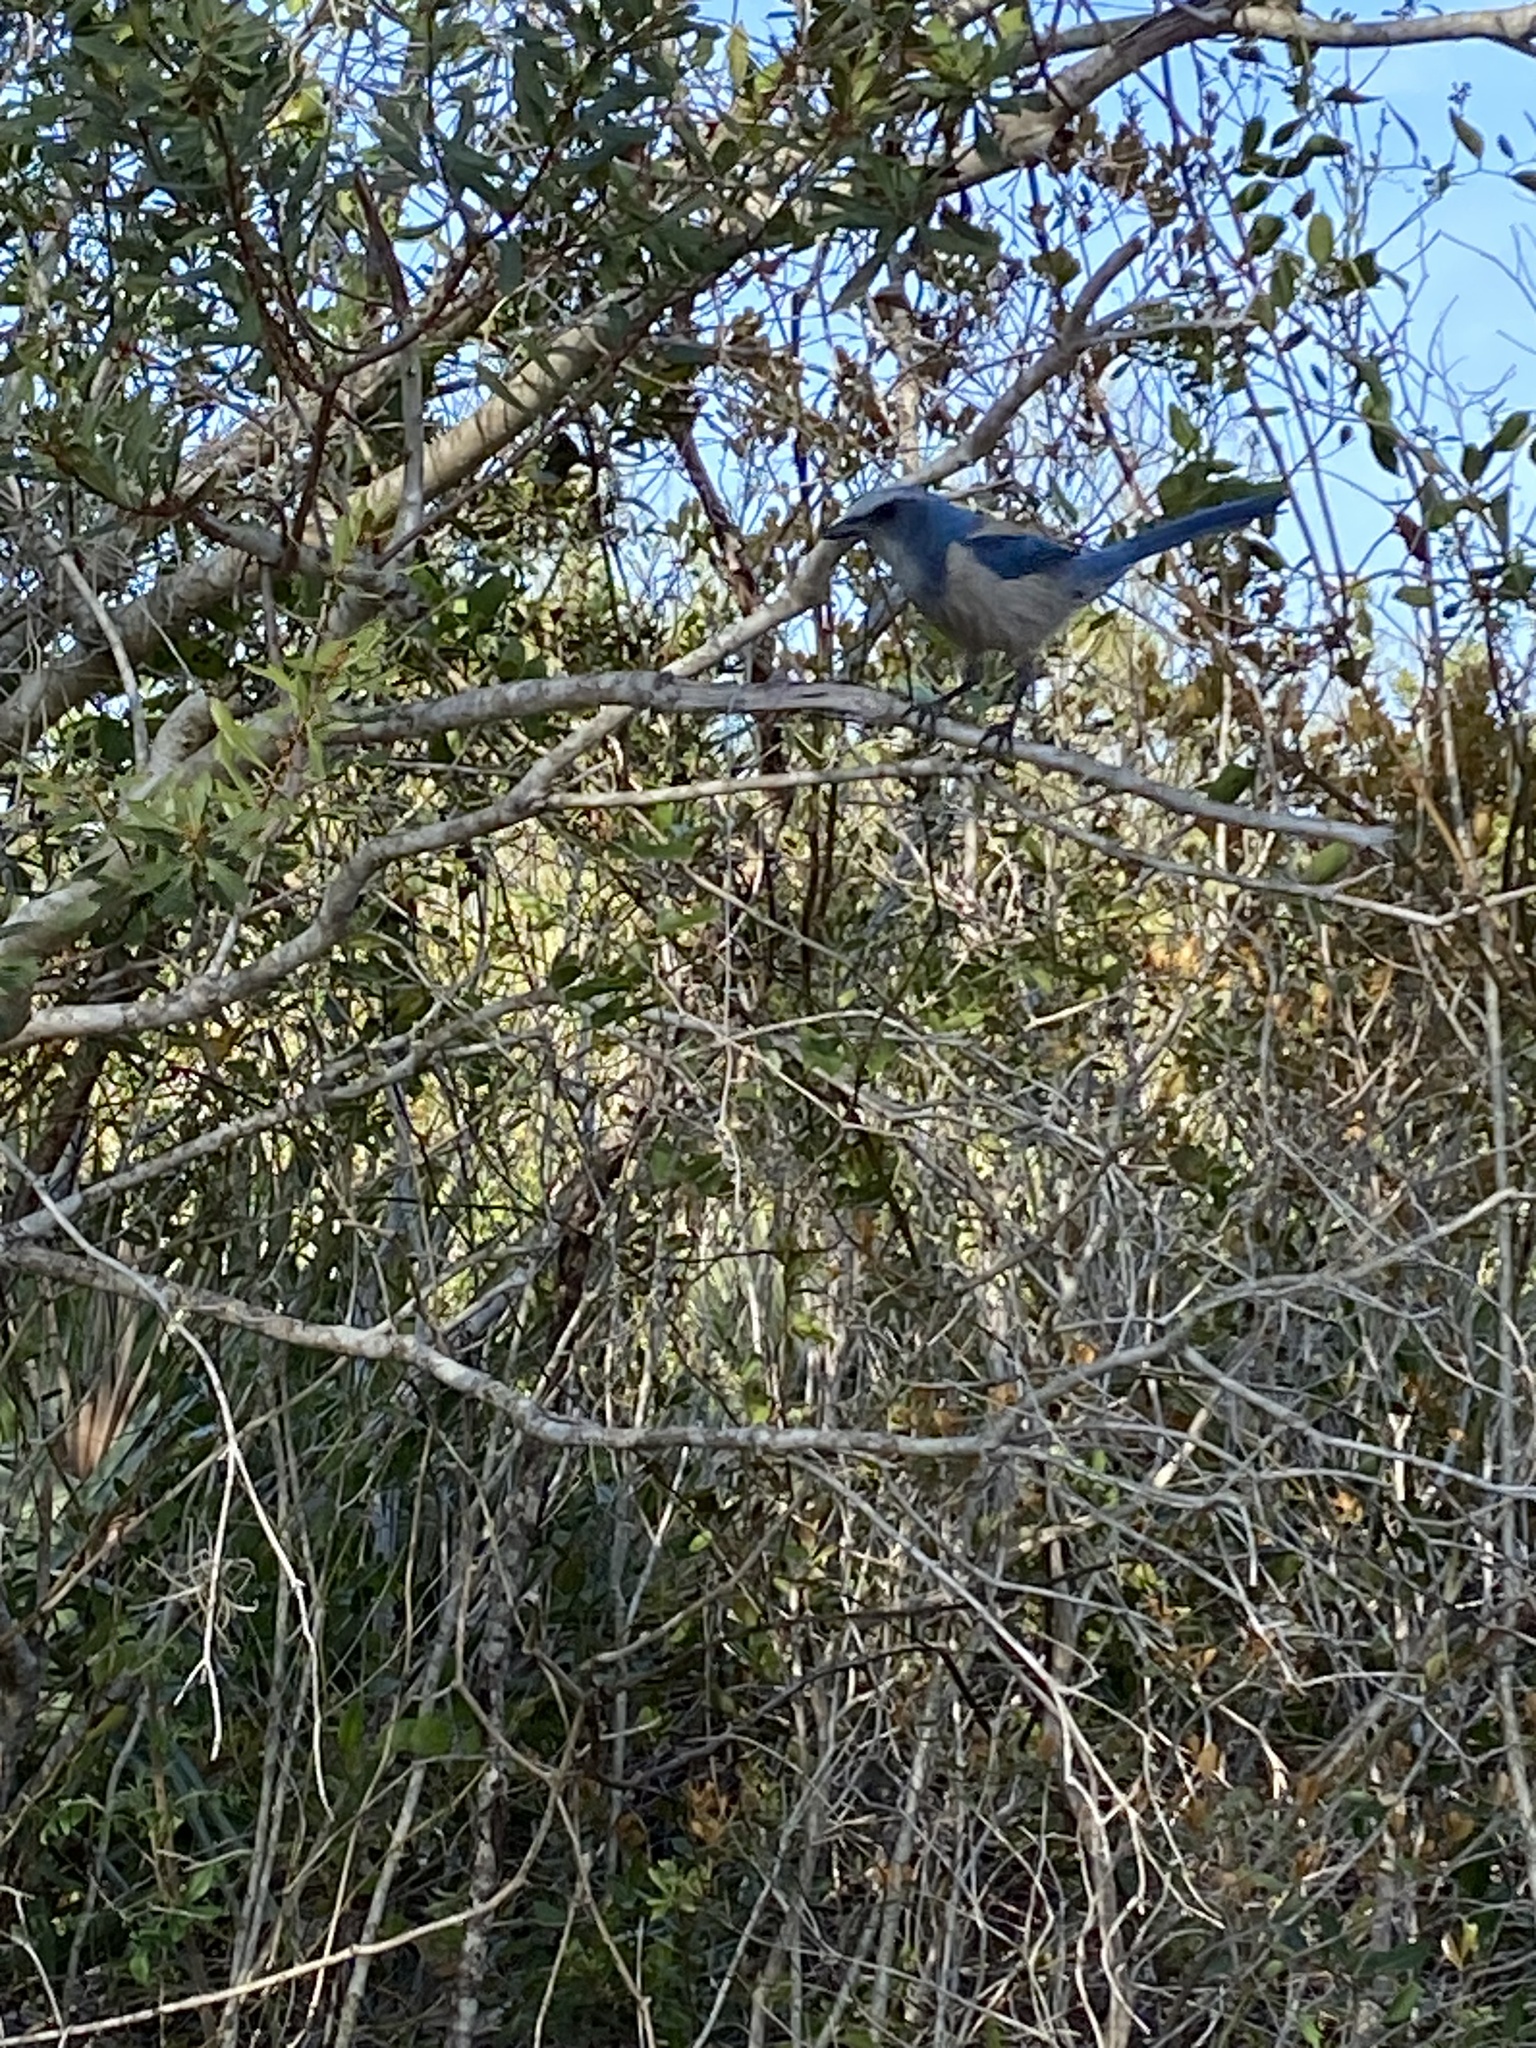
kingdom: Animalia
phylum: Chordata
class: Aves
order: Passeriformes
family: Corvidae
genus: Aphelocoma
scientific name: Aphelocoma coerulescens
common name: Florida scrub jay
